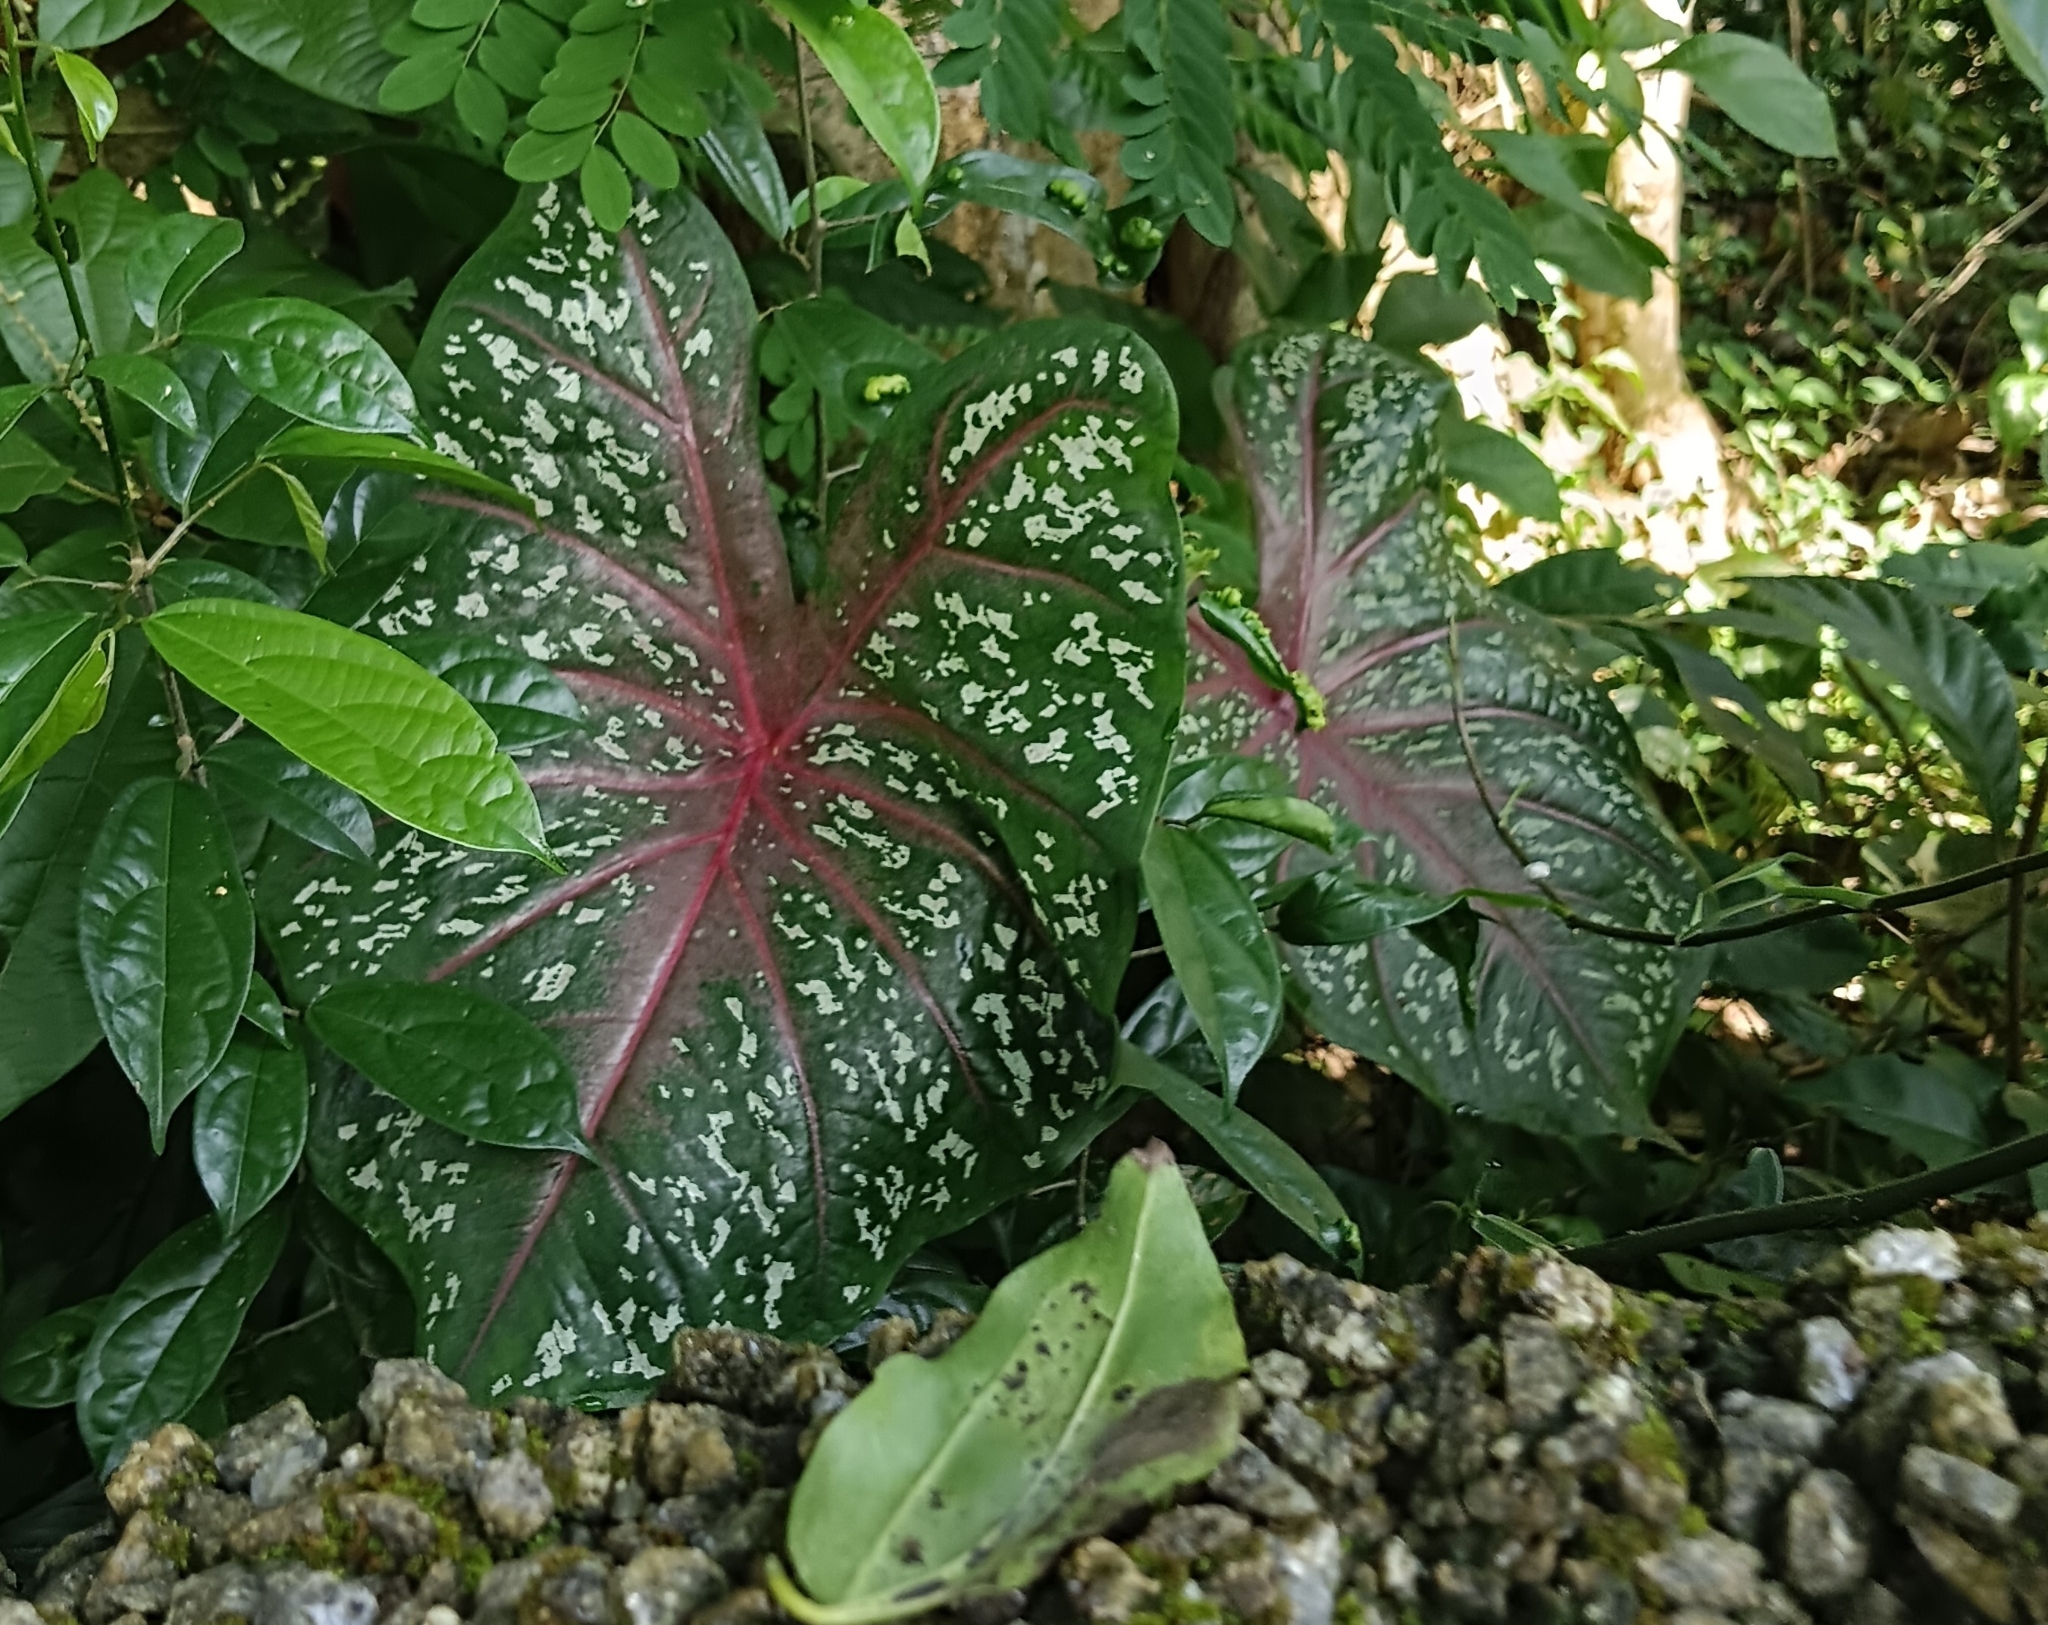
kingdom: Plantae
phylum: Tracheophyta
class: Liliopsida
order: Alismatales
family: Araceae
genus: Caladium
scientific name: Caladium bicolor
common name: Artist's pallet
